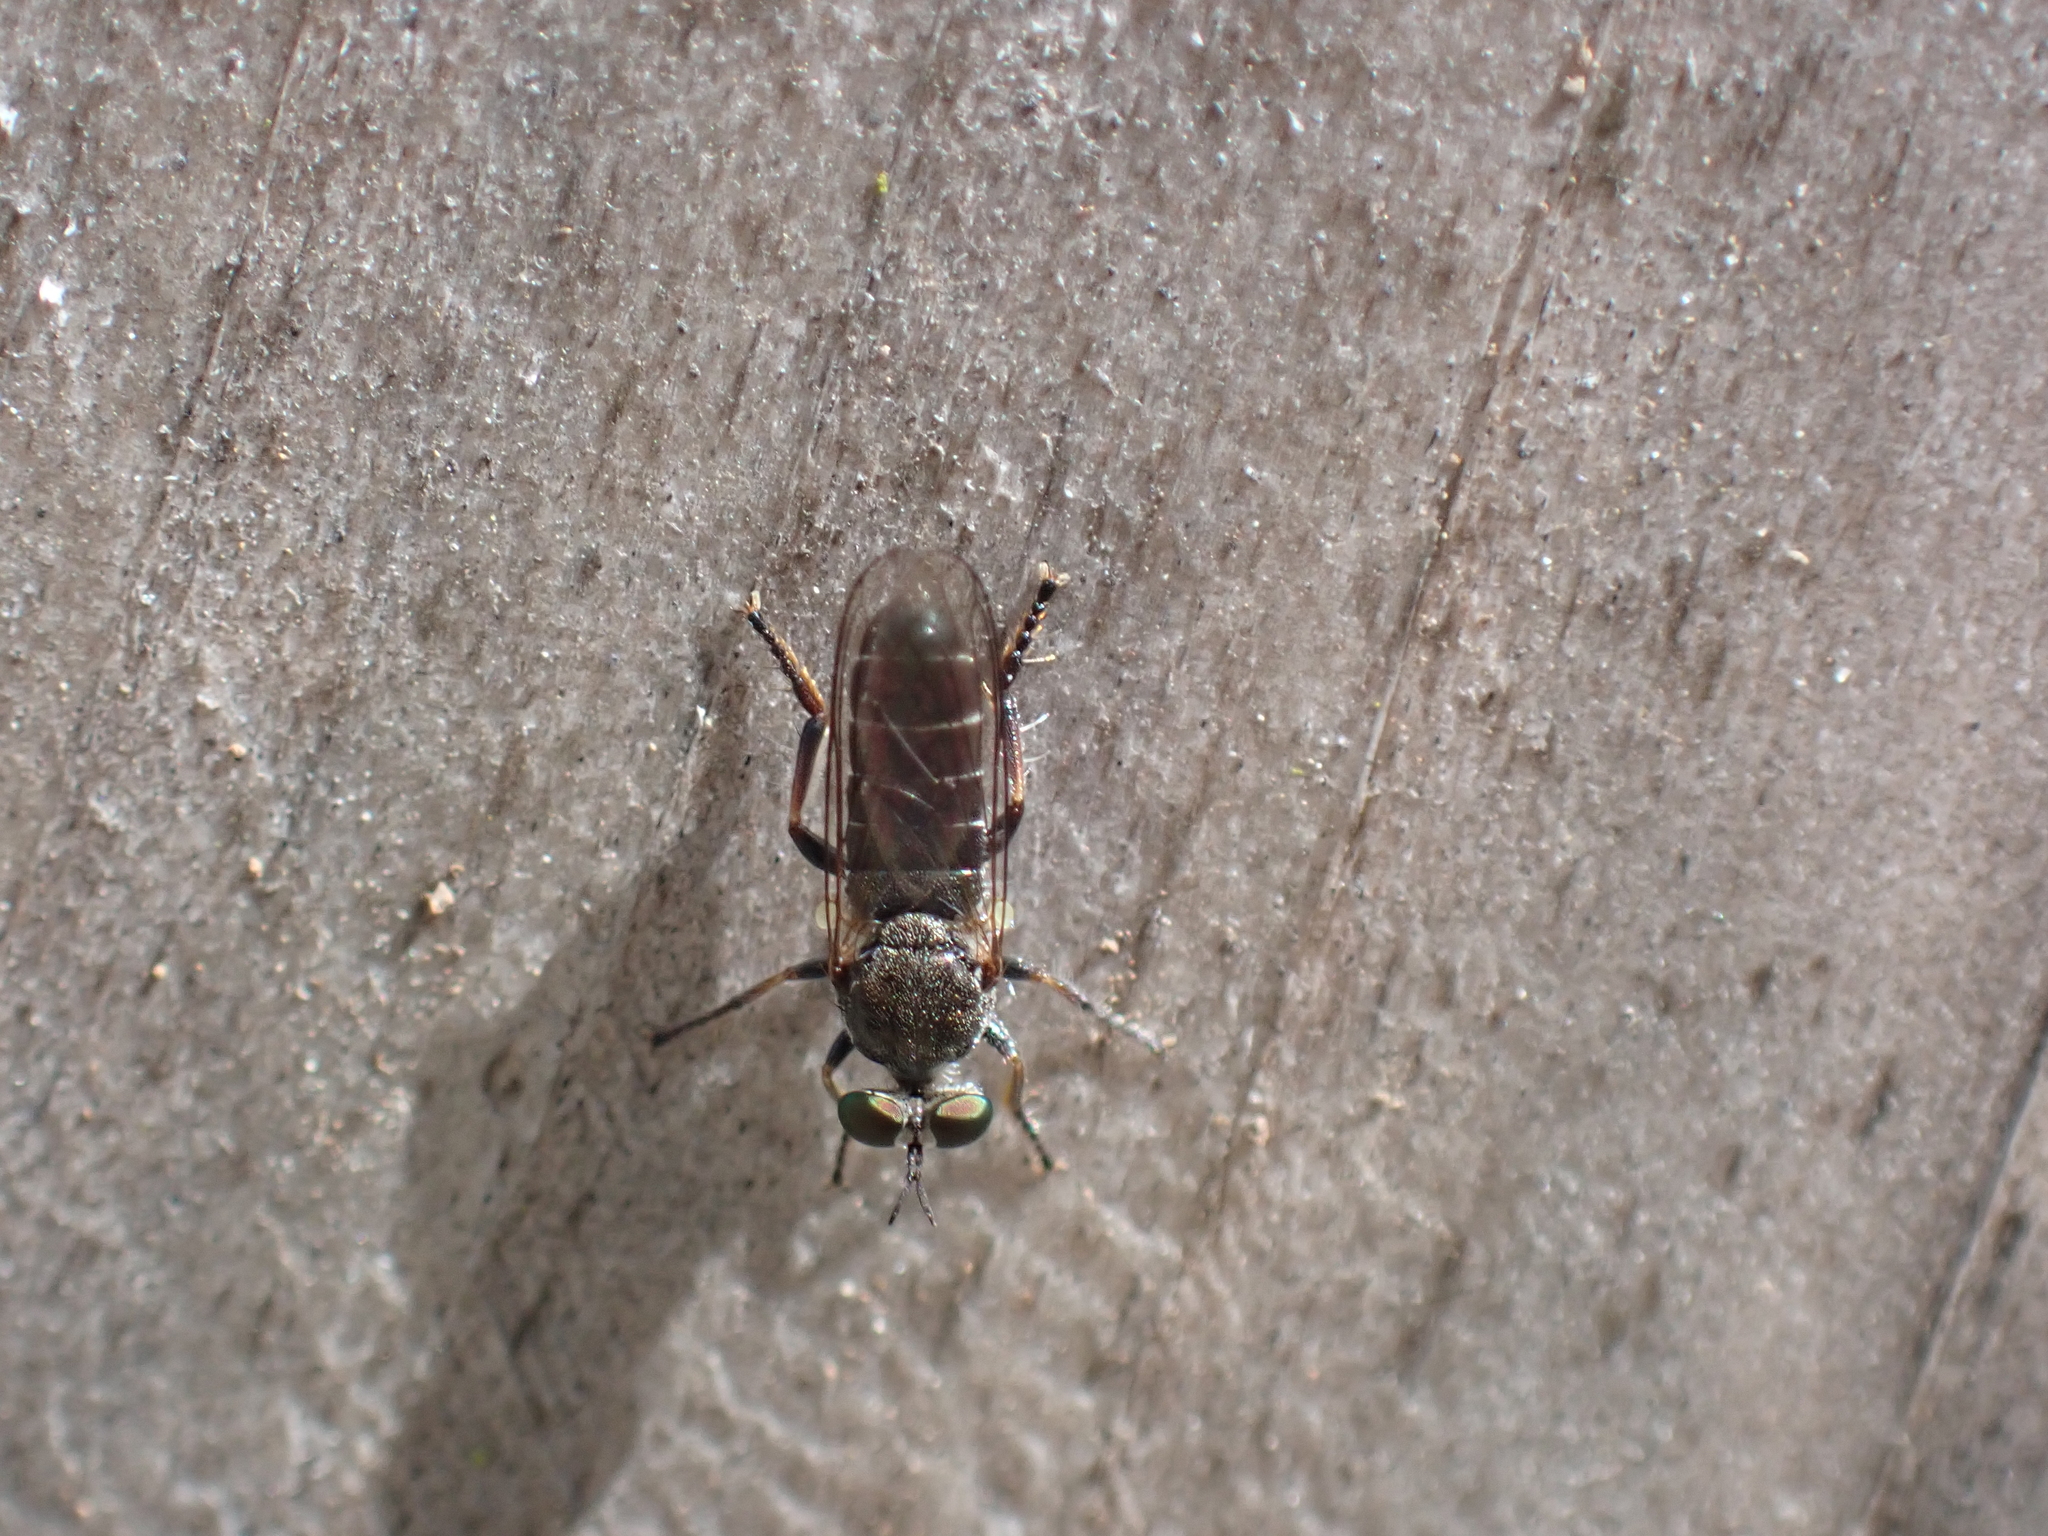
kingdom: Animalia
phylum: Arthropoda
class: Insecta
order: Diptera
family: Asilidae
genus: Atomosia
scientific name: Atomosia puella
